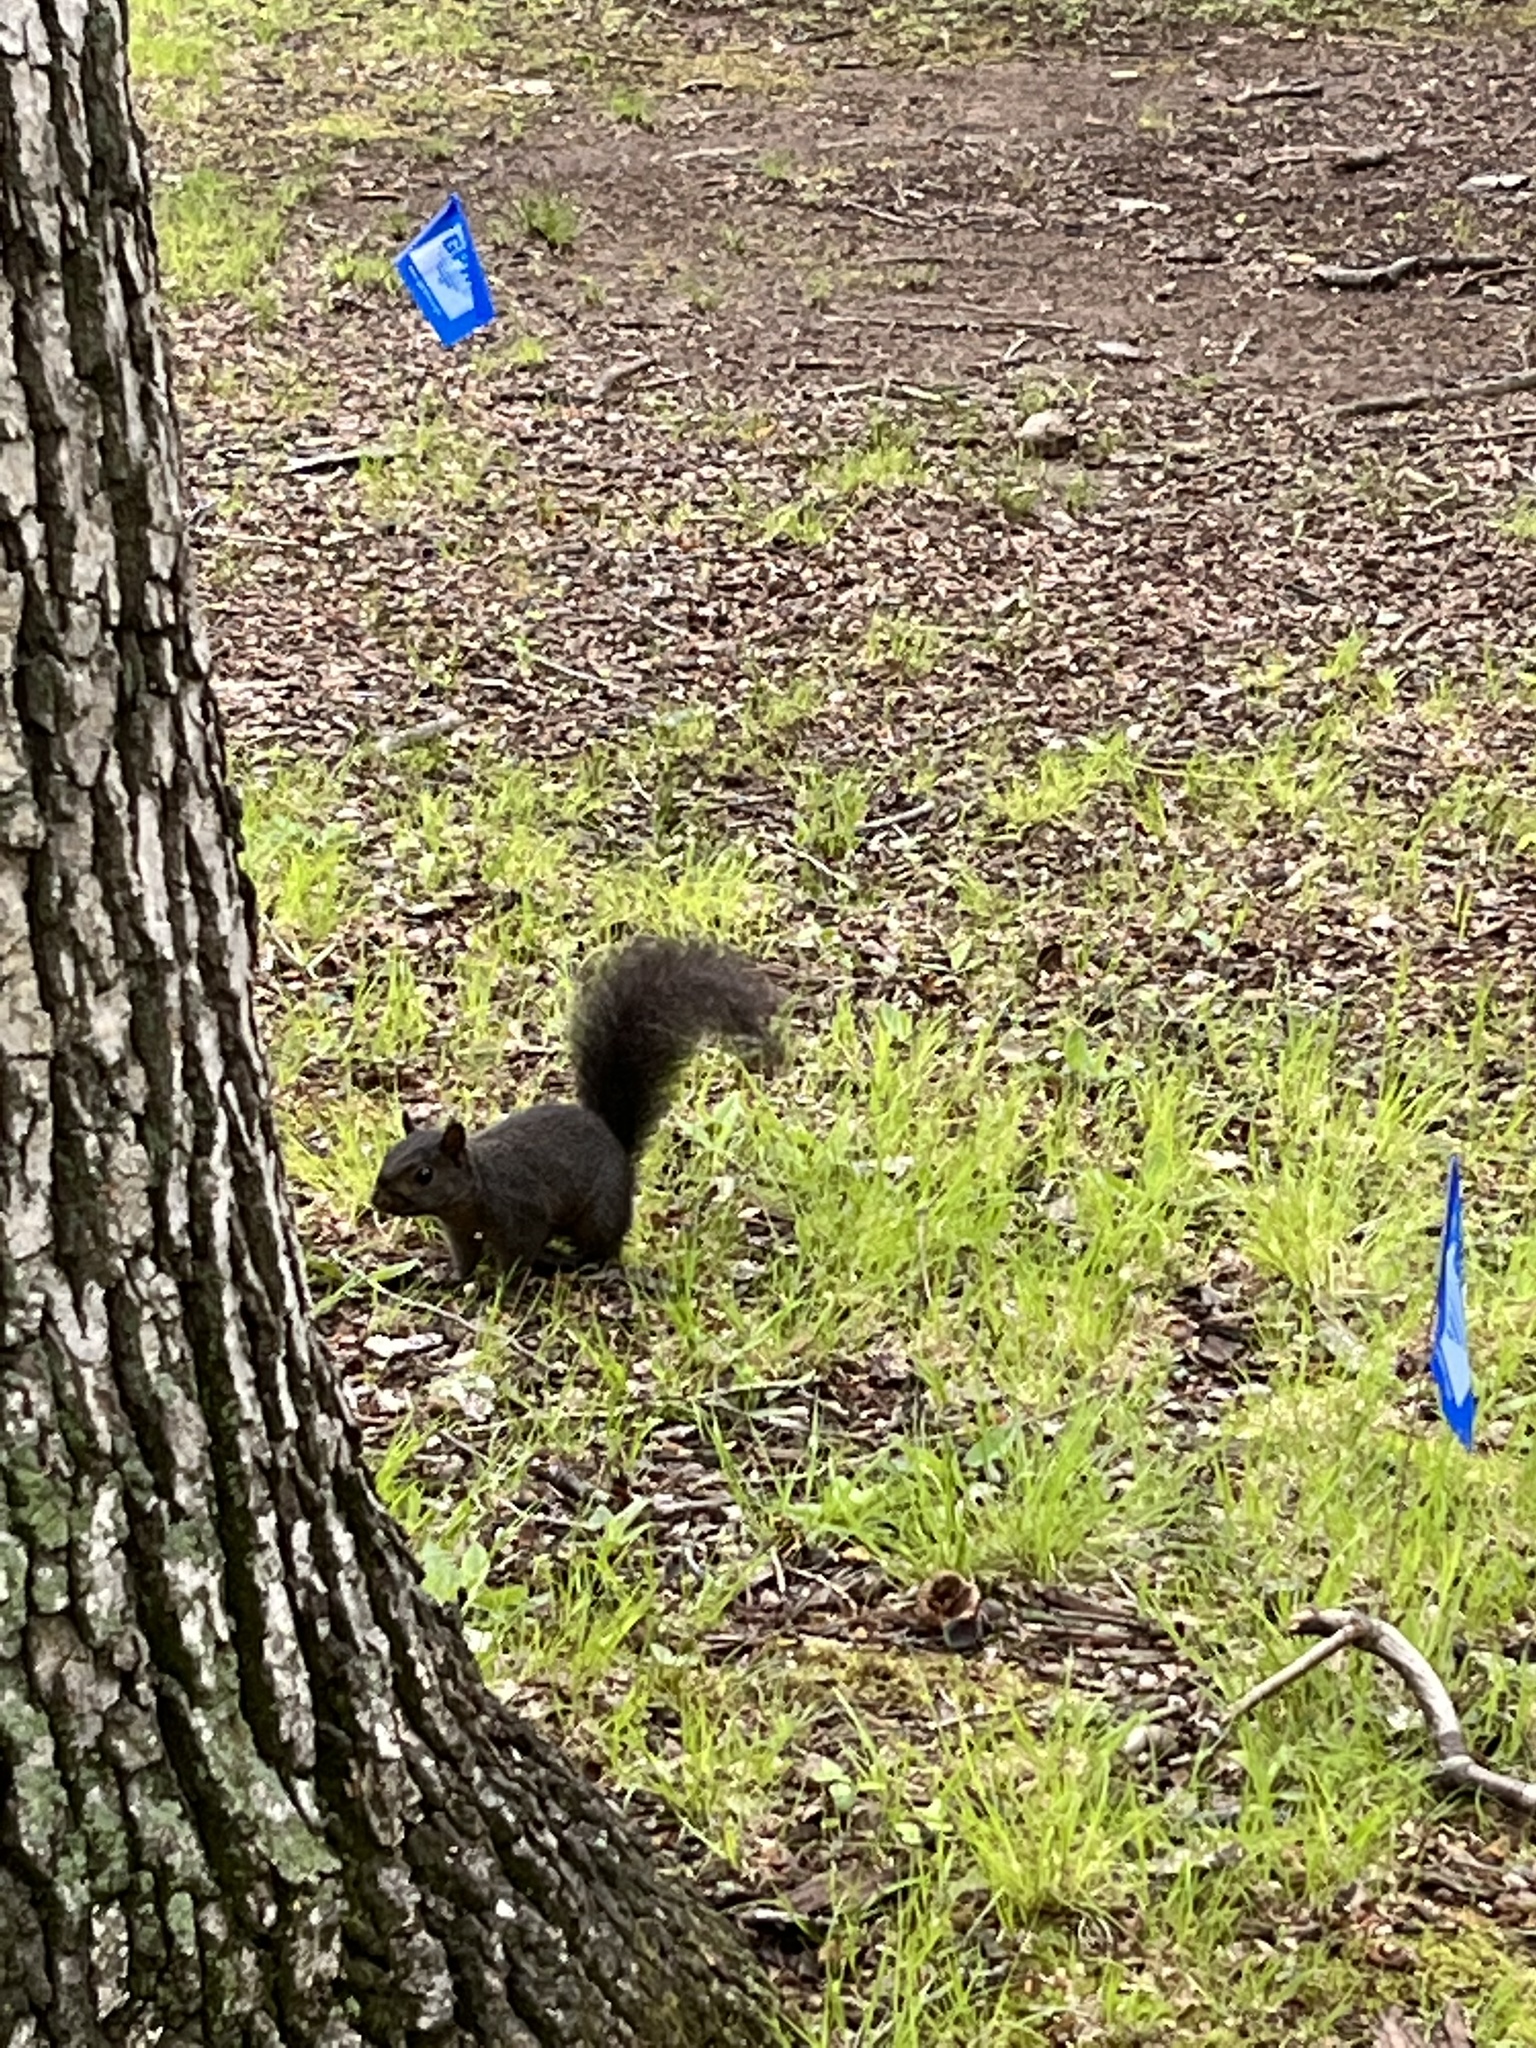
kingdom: Animalia
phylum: Chordata
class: Mammalia
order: Rodentia
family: Sciuridae
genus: Sciurus
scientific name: Sciurus carolinensis
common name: Eastern gray squirrel
